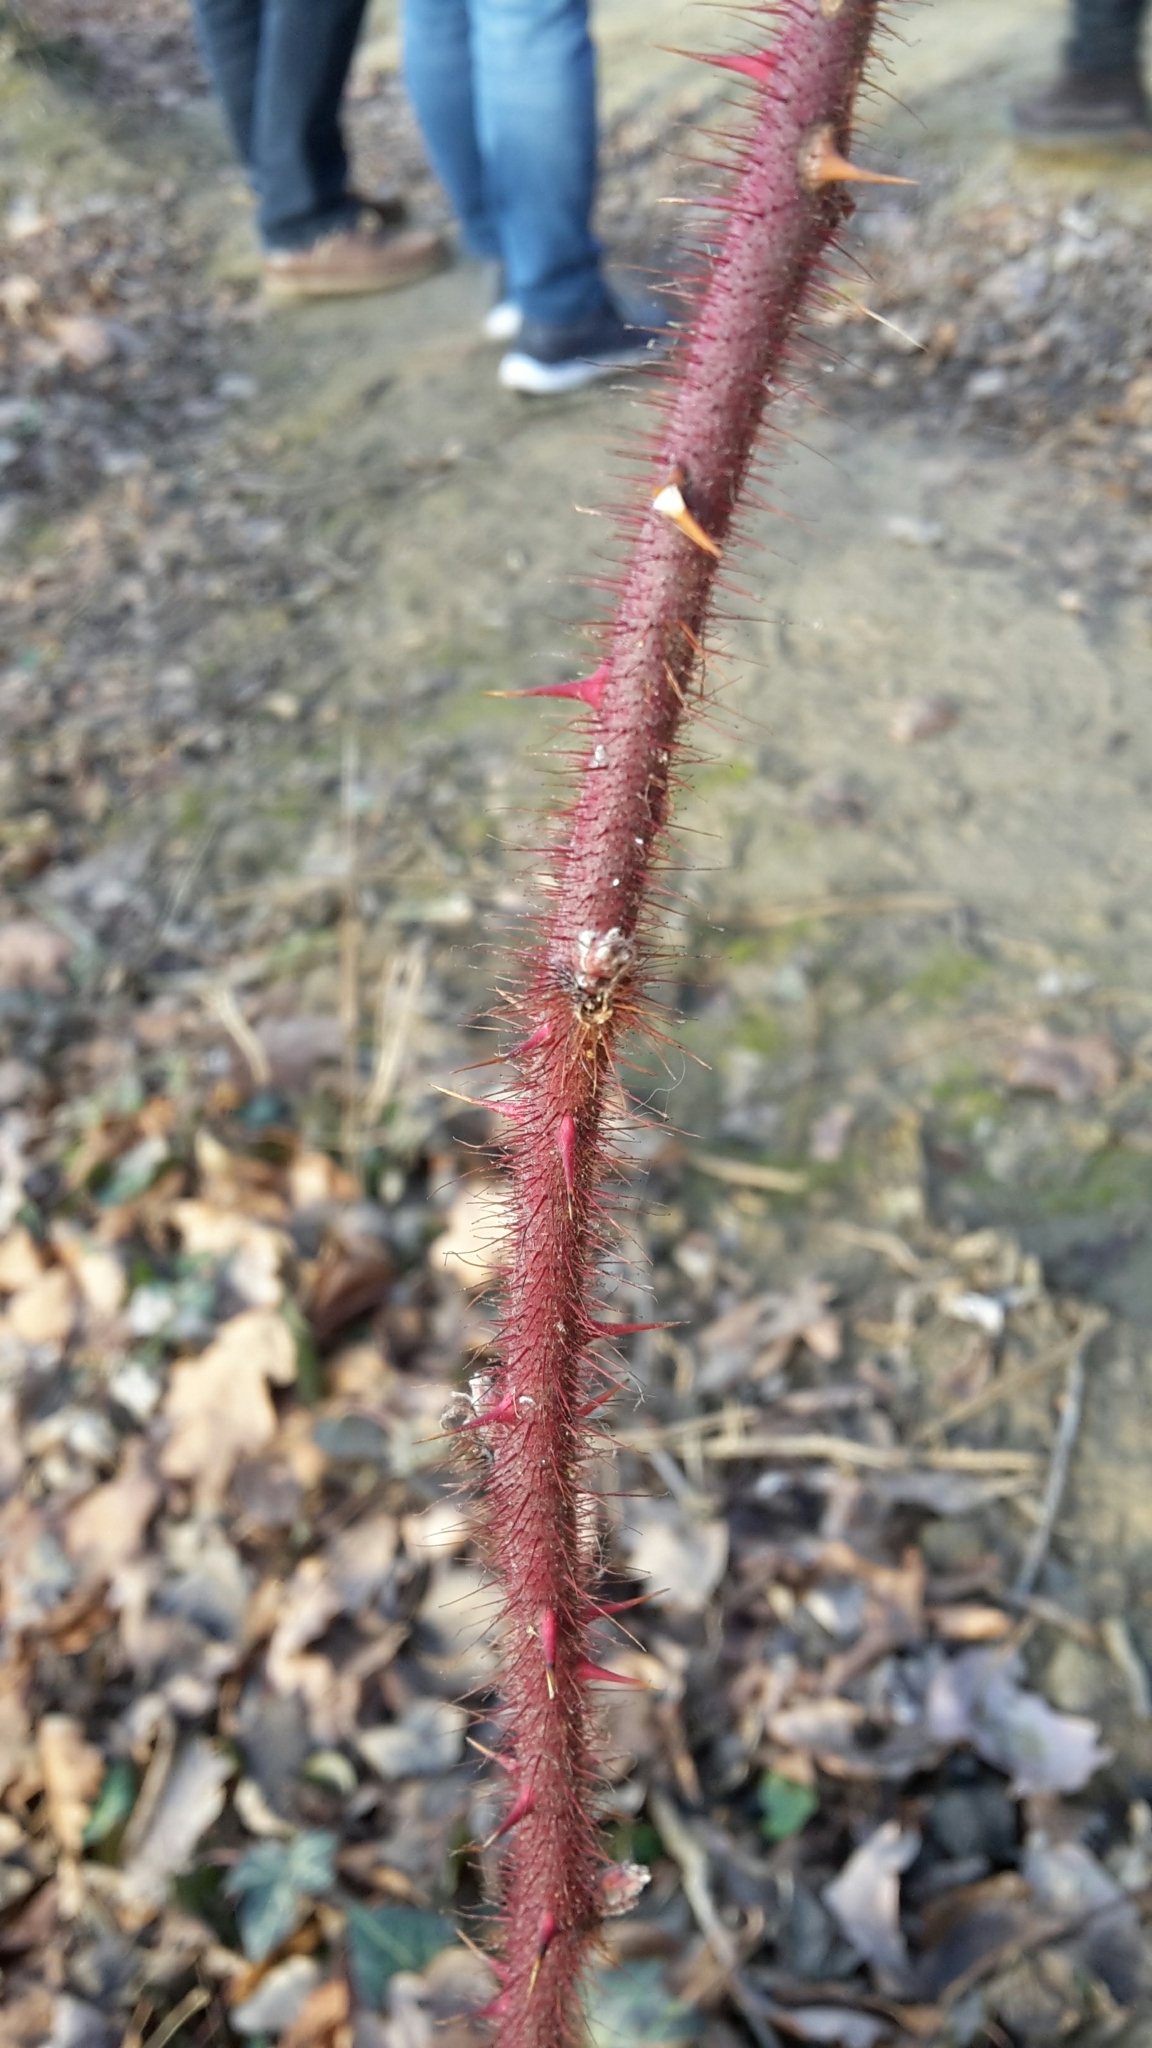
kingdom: Plantae
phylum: Tracheophyta
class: Magnoliopsida
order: Rosales
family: Rosaceae
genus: Rubus
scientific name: Rubus phoenicolasius
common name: Japanese wineberry
